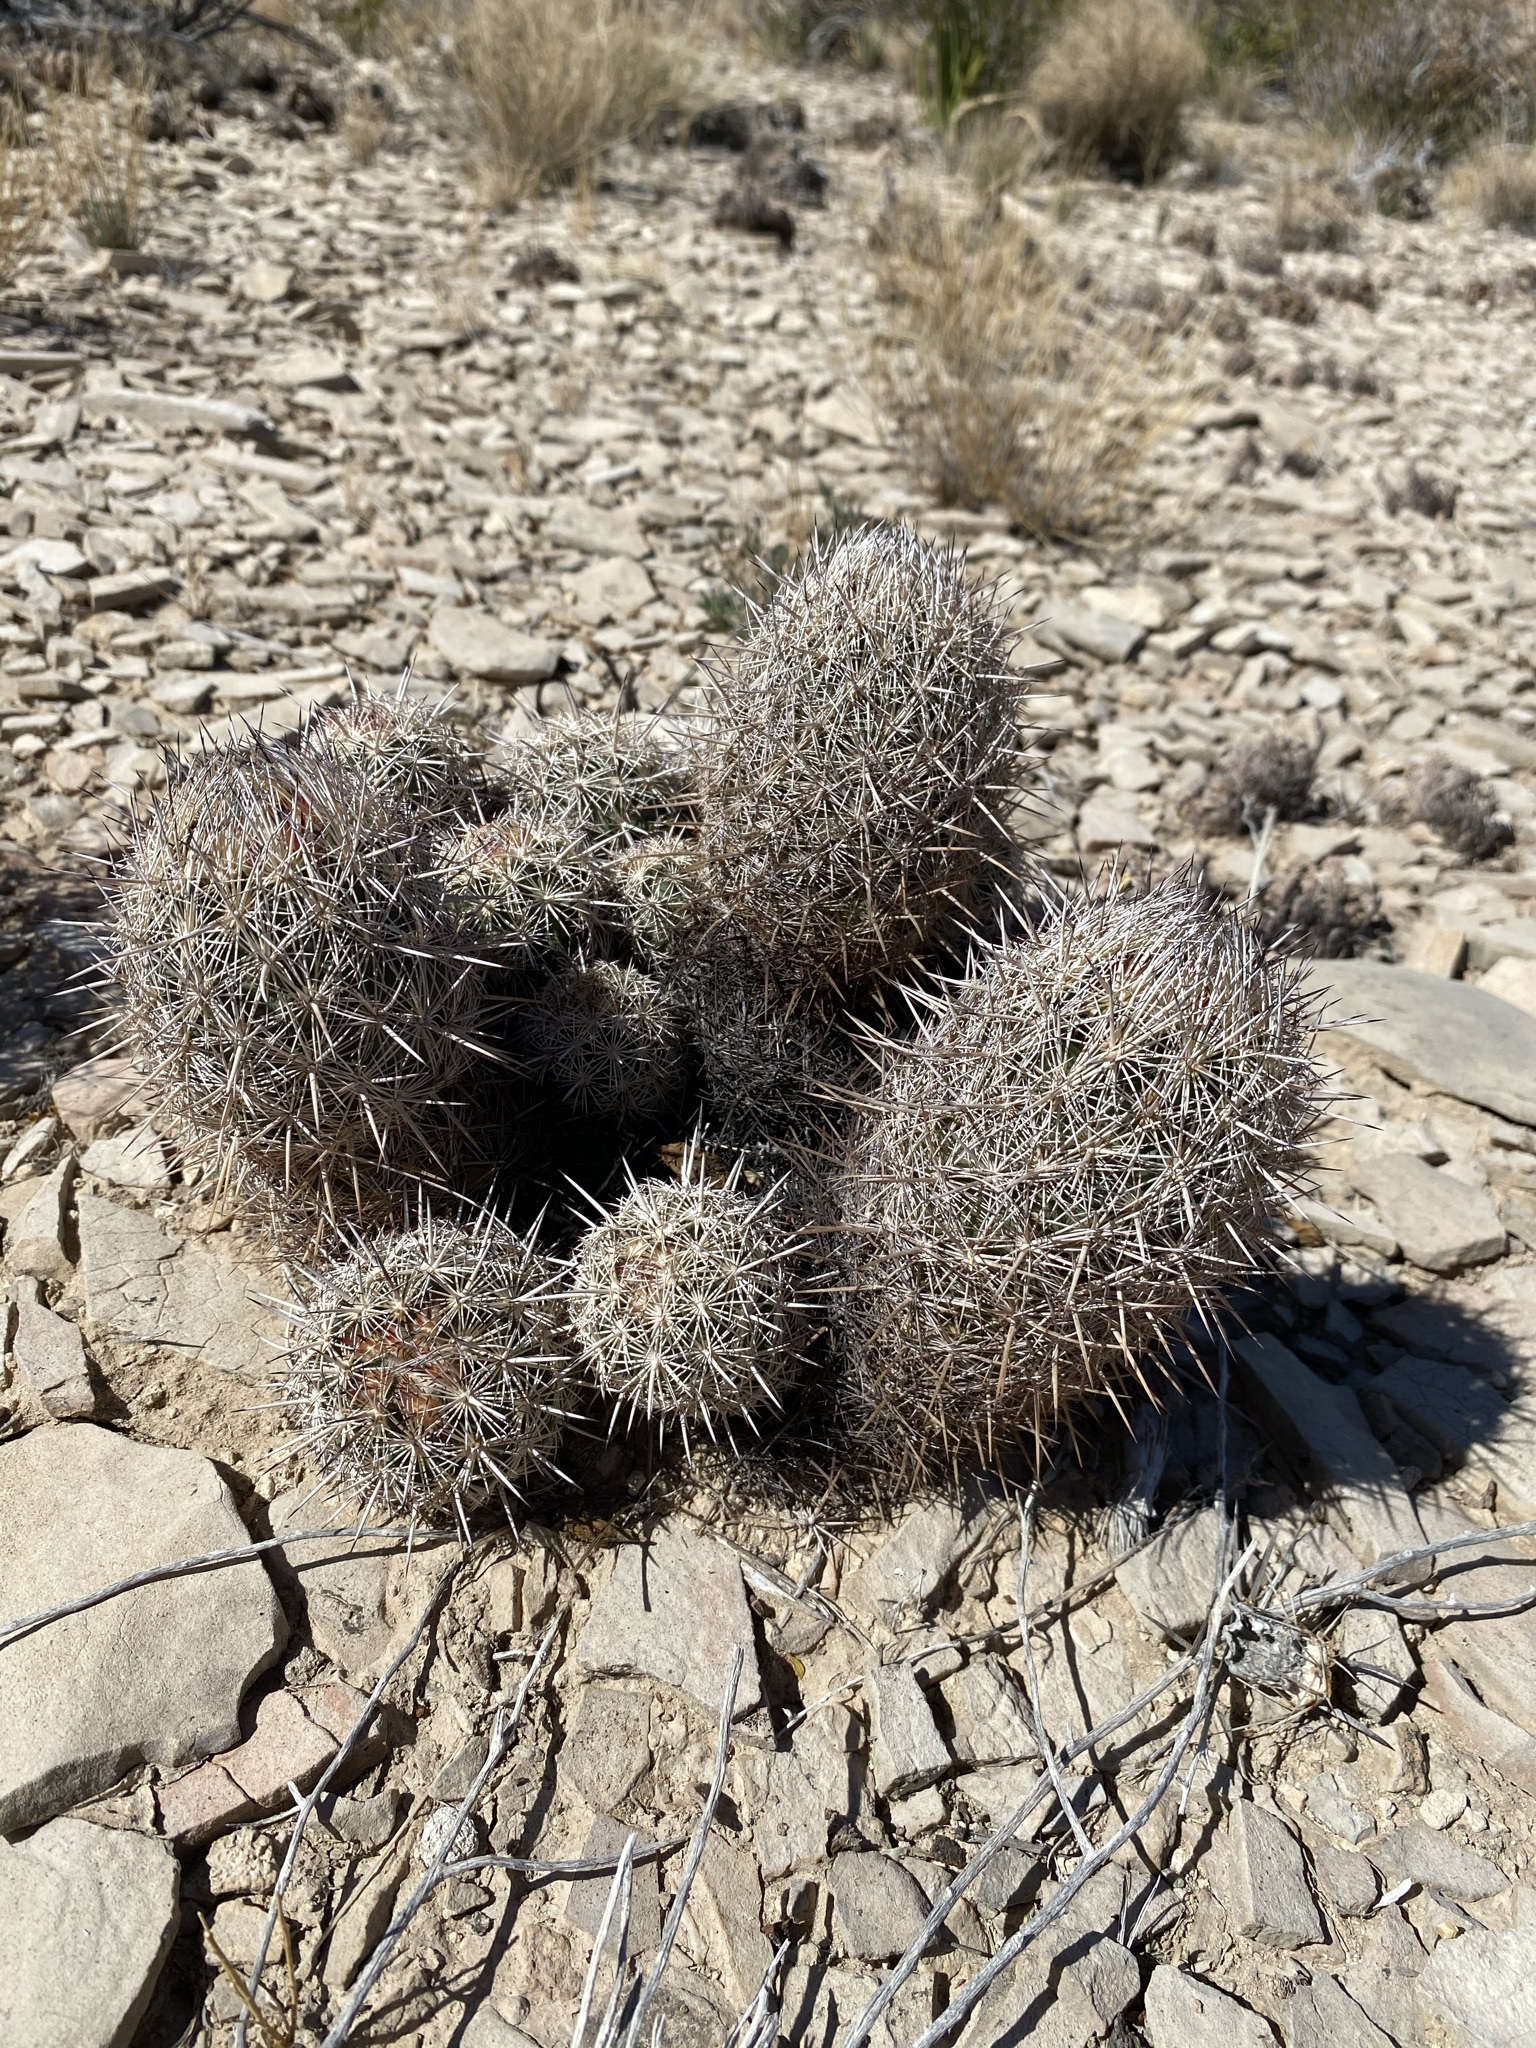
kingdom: Plantae
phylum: Tracheophyta
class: Magnoliopsida
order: Caryophyllales
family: Cactaceae
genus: Coryphantha
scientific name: Coryphantha echinus
